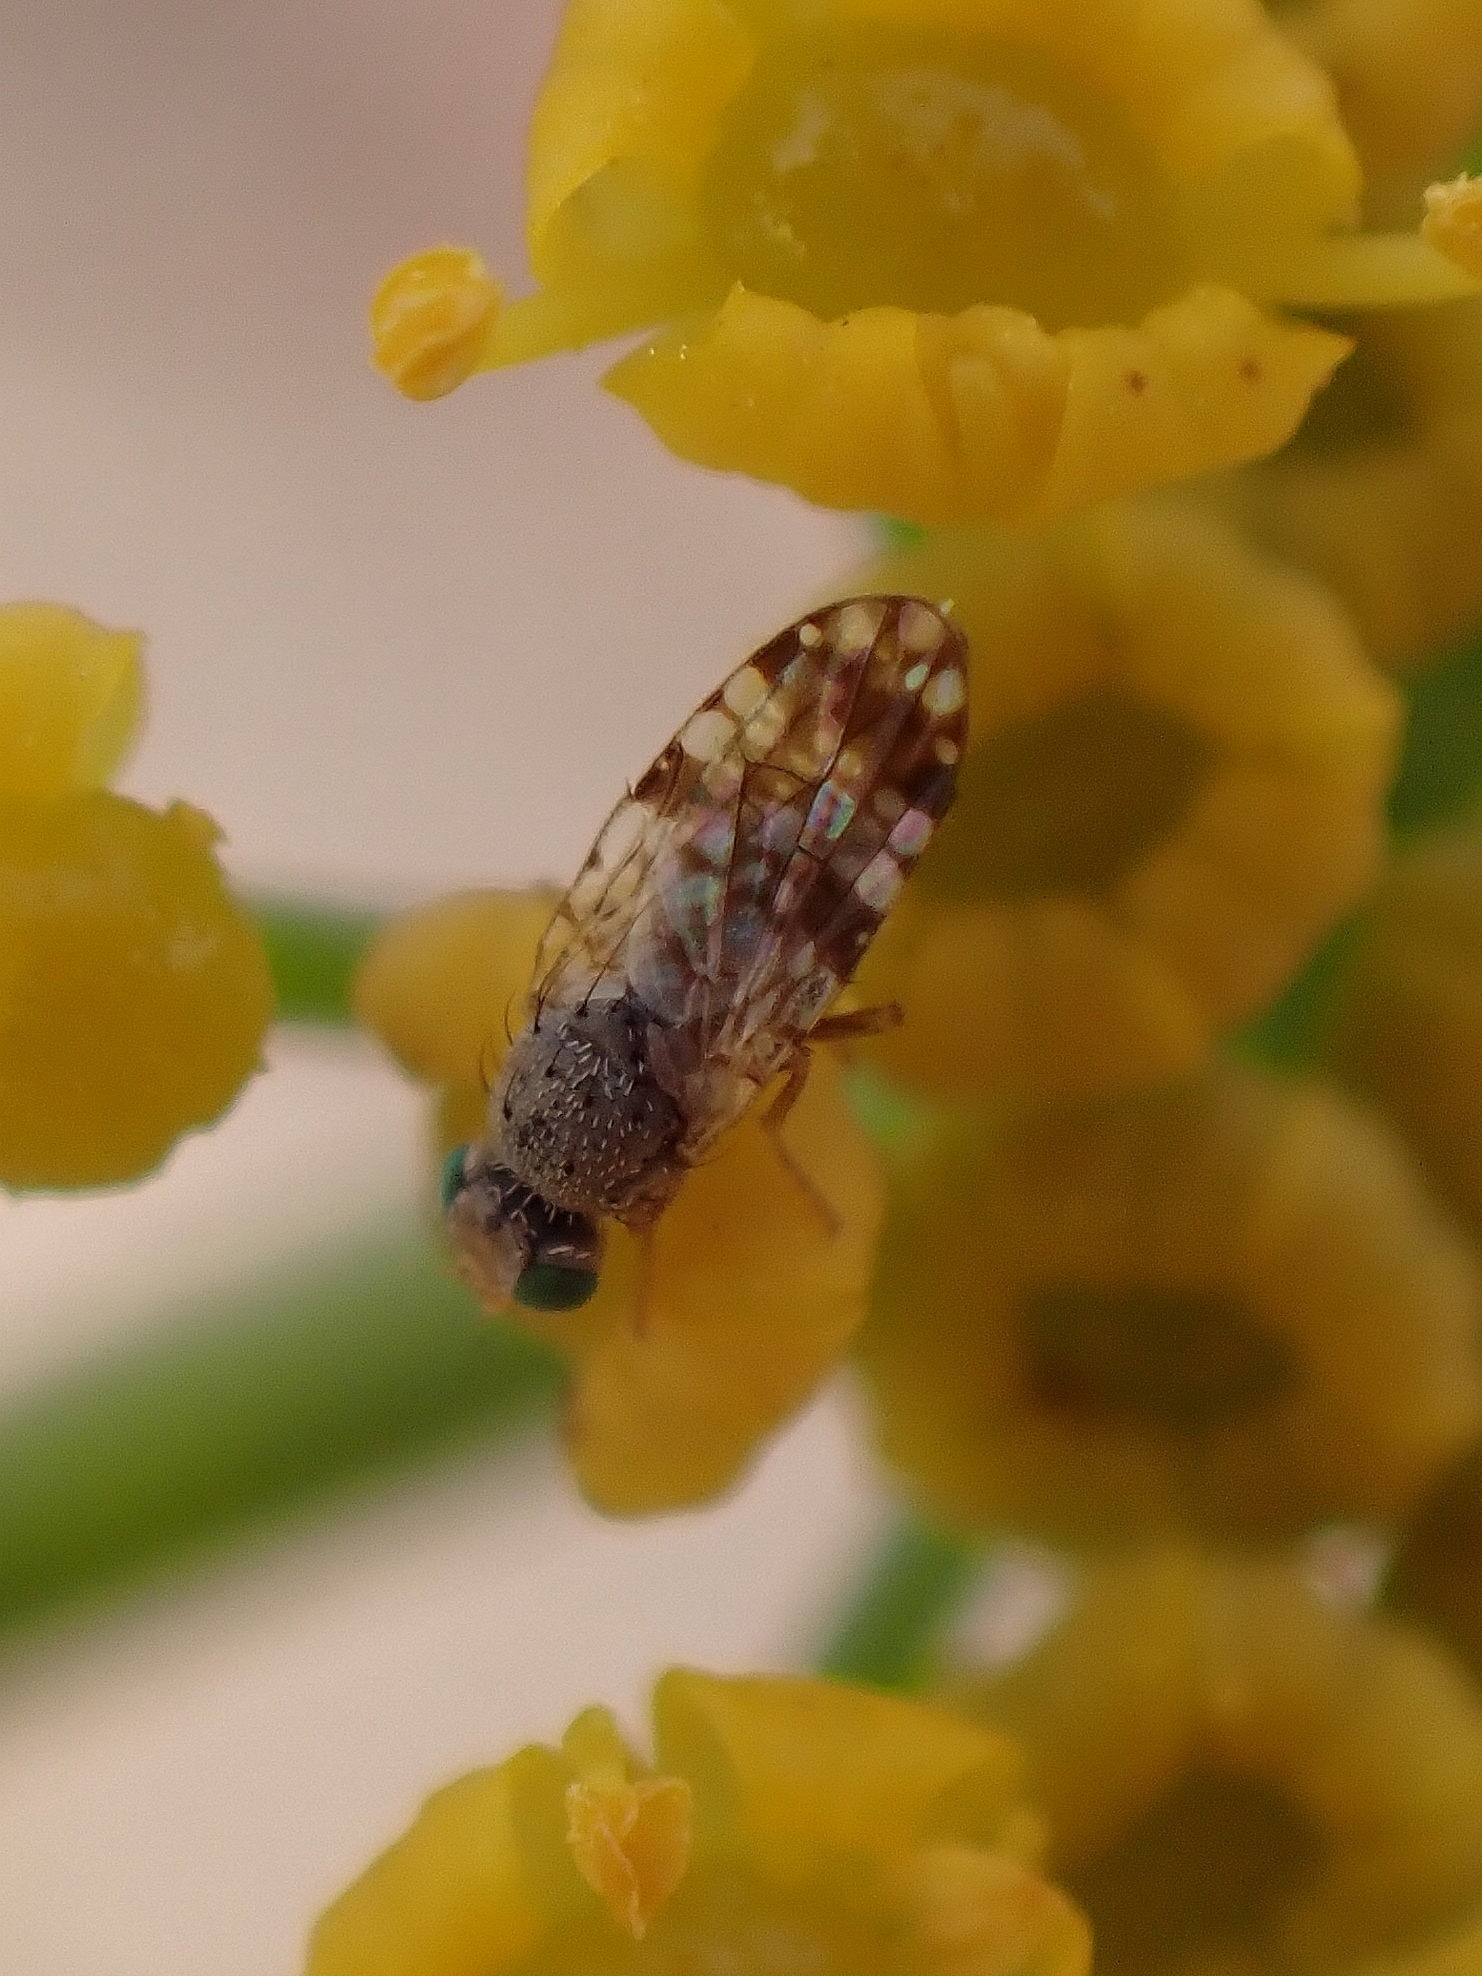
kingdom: Animalia
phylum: Arthropoda
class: Insecta
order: Diptera
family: Tephritidae
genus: Tephritis
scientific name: Tephritis luteipes
